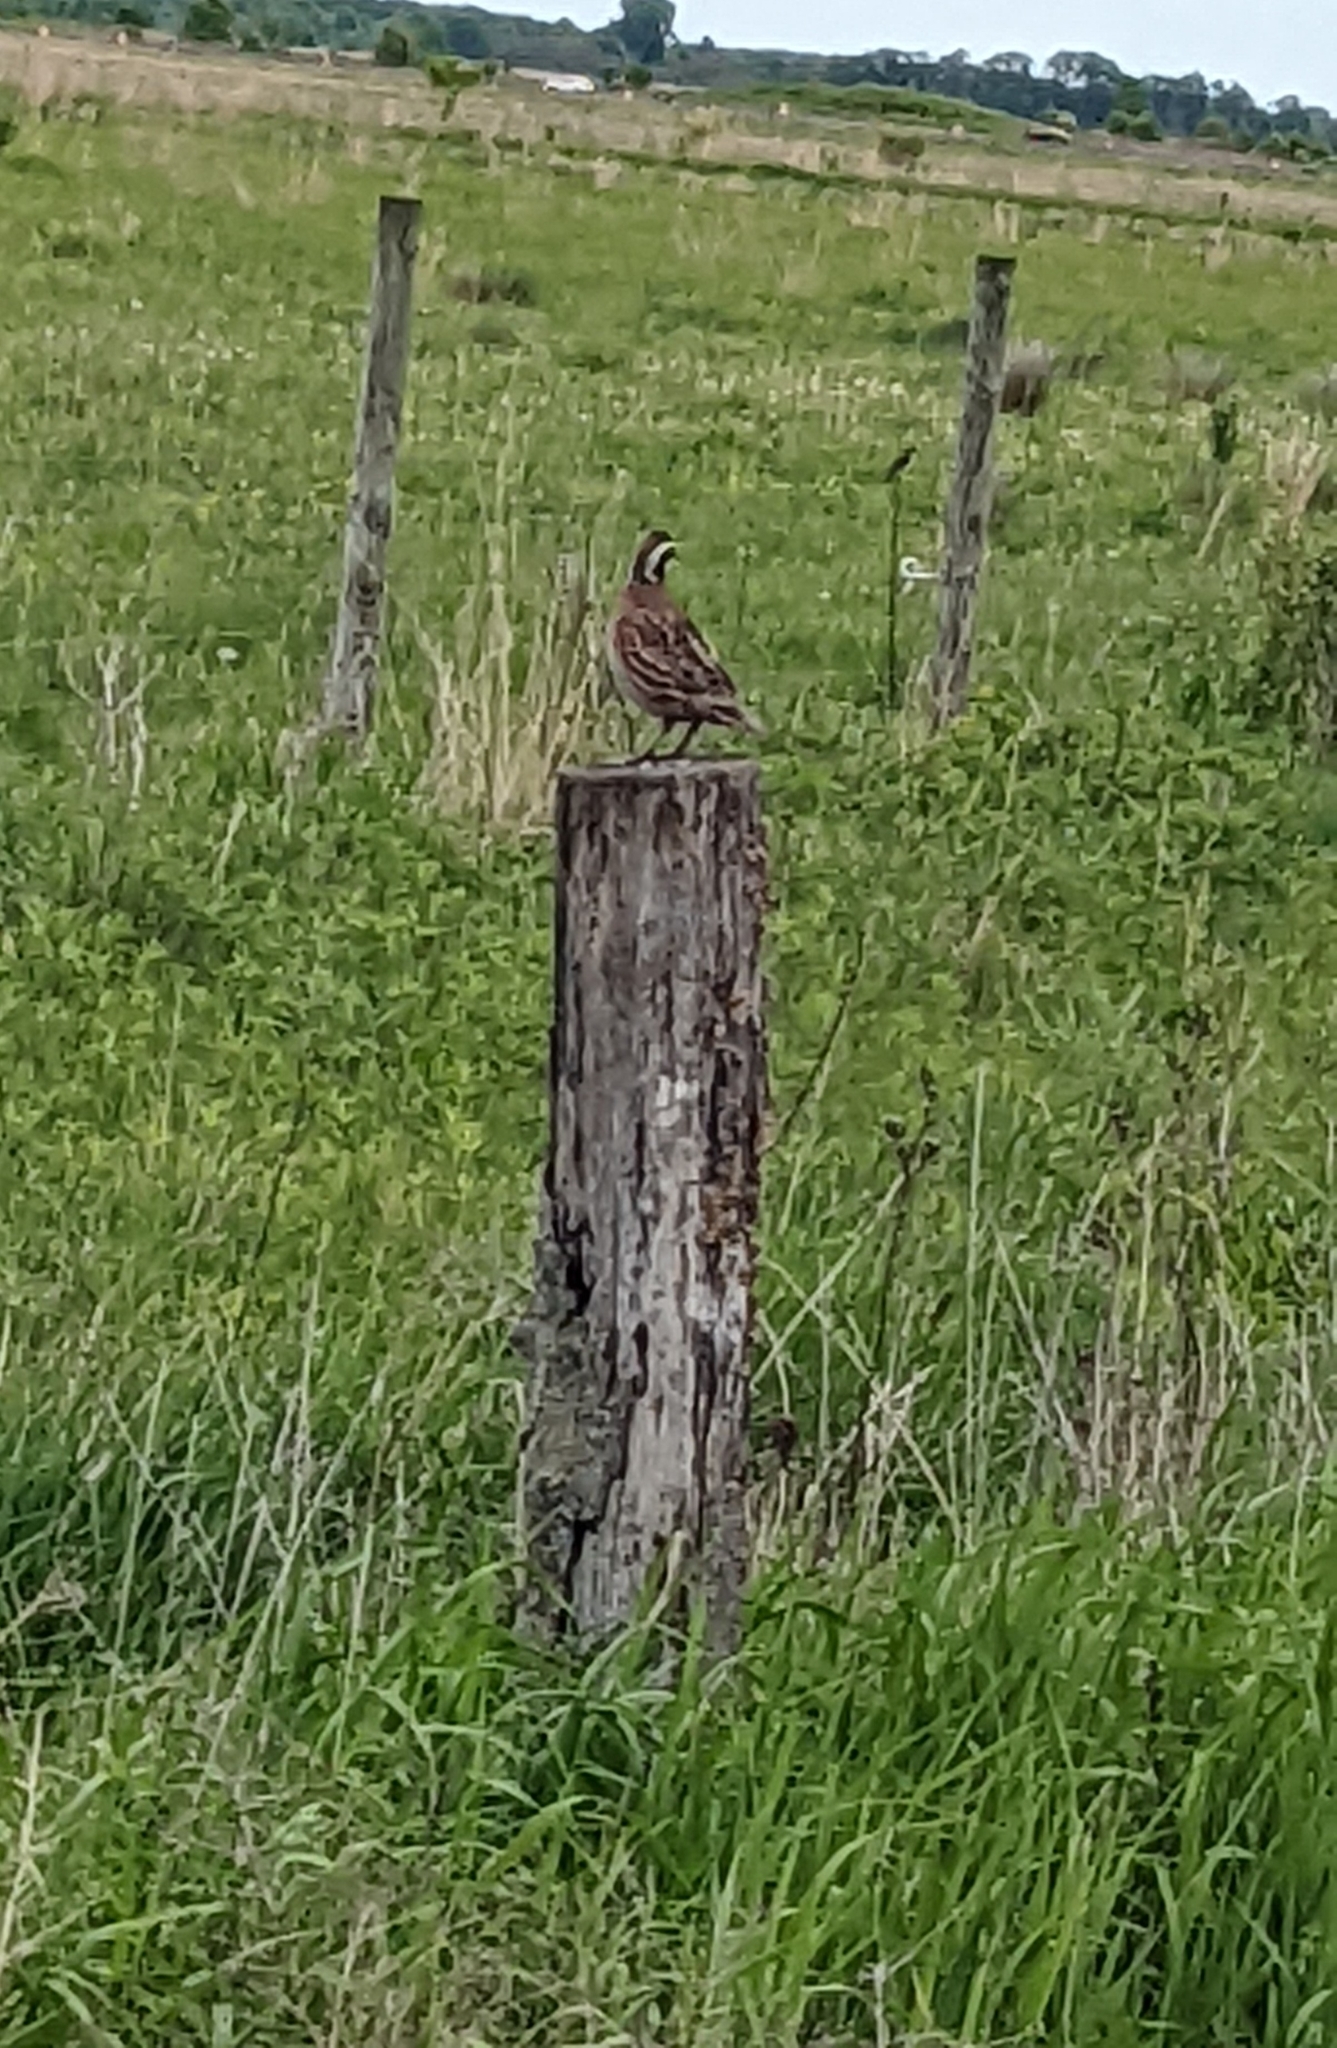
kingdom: Animalia
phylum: Chordata
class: Aves
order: Galliformes
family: Odontophoridae
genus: Colinus
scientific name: Colinus virginianus
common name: Northern bobwhite
